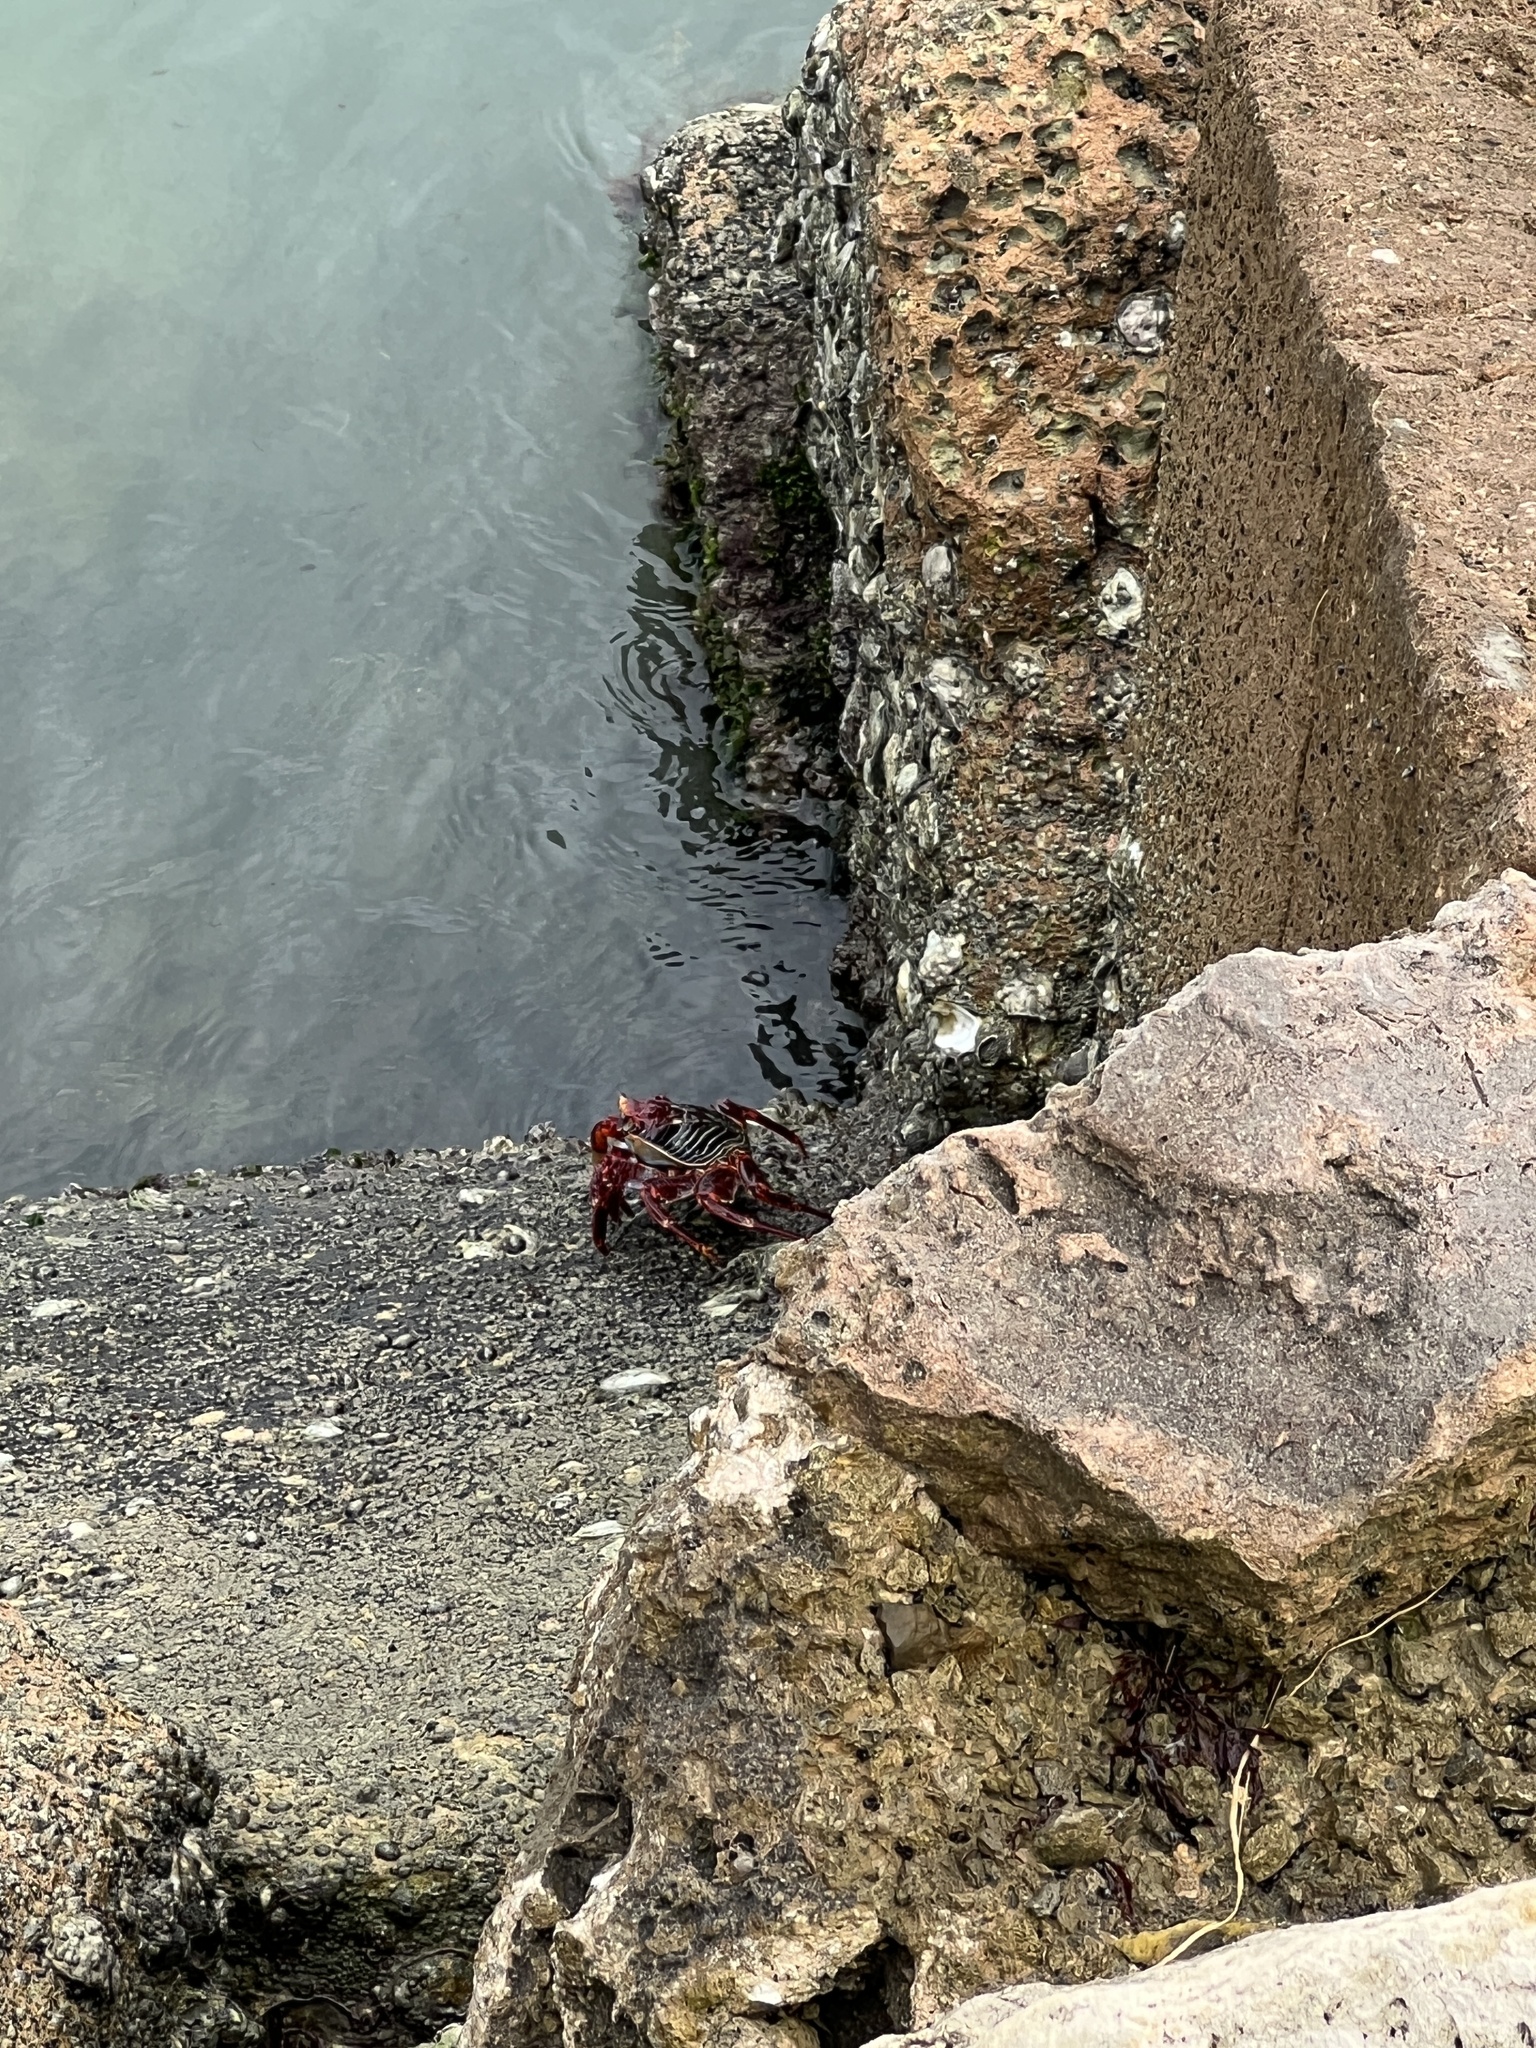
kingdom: Animalia
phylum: Arthropoda
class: Malacostraca
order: Decapoda
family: Grapsidae
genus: Grapsus
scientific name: Grapsus grapsus
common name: Sally lightfoot
